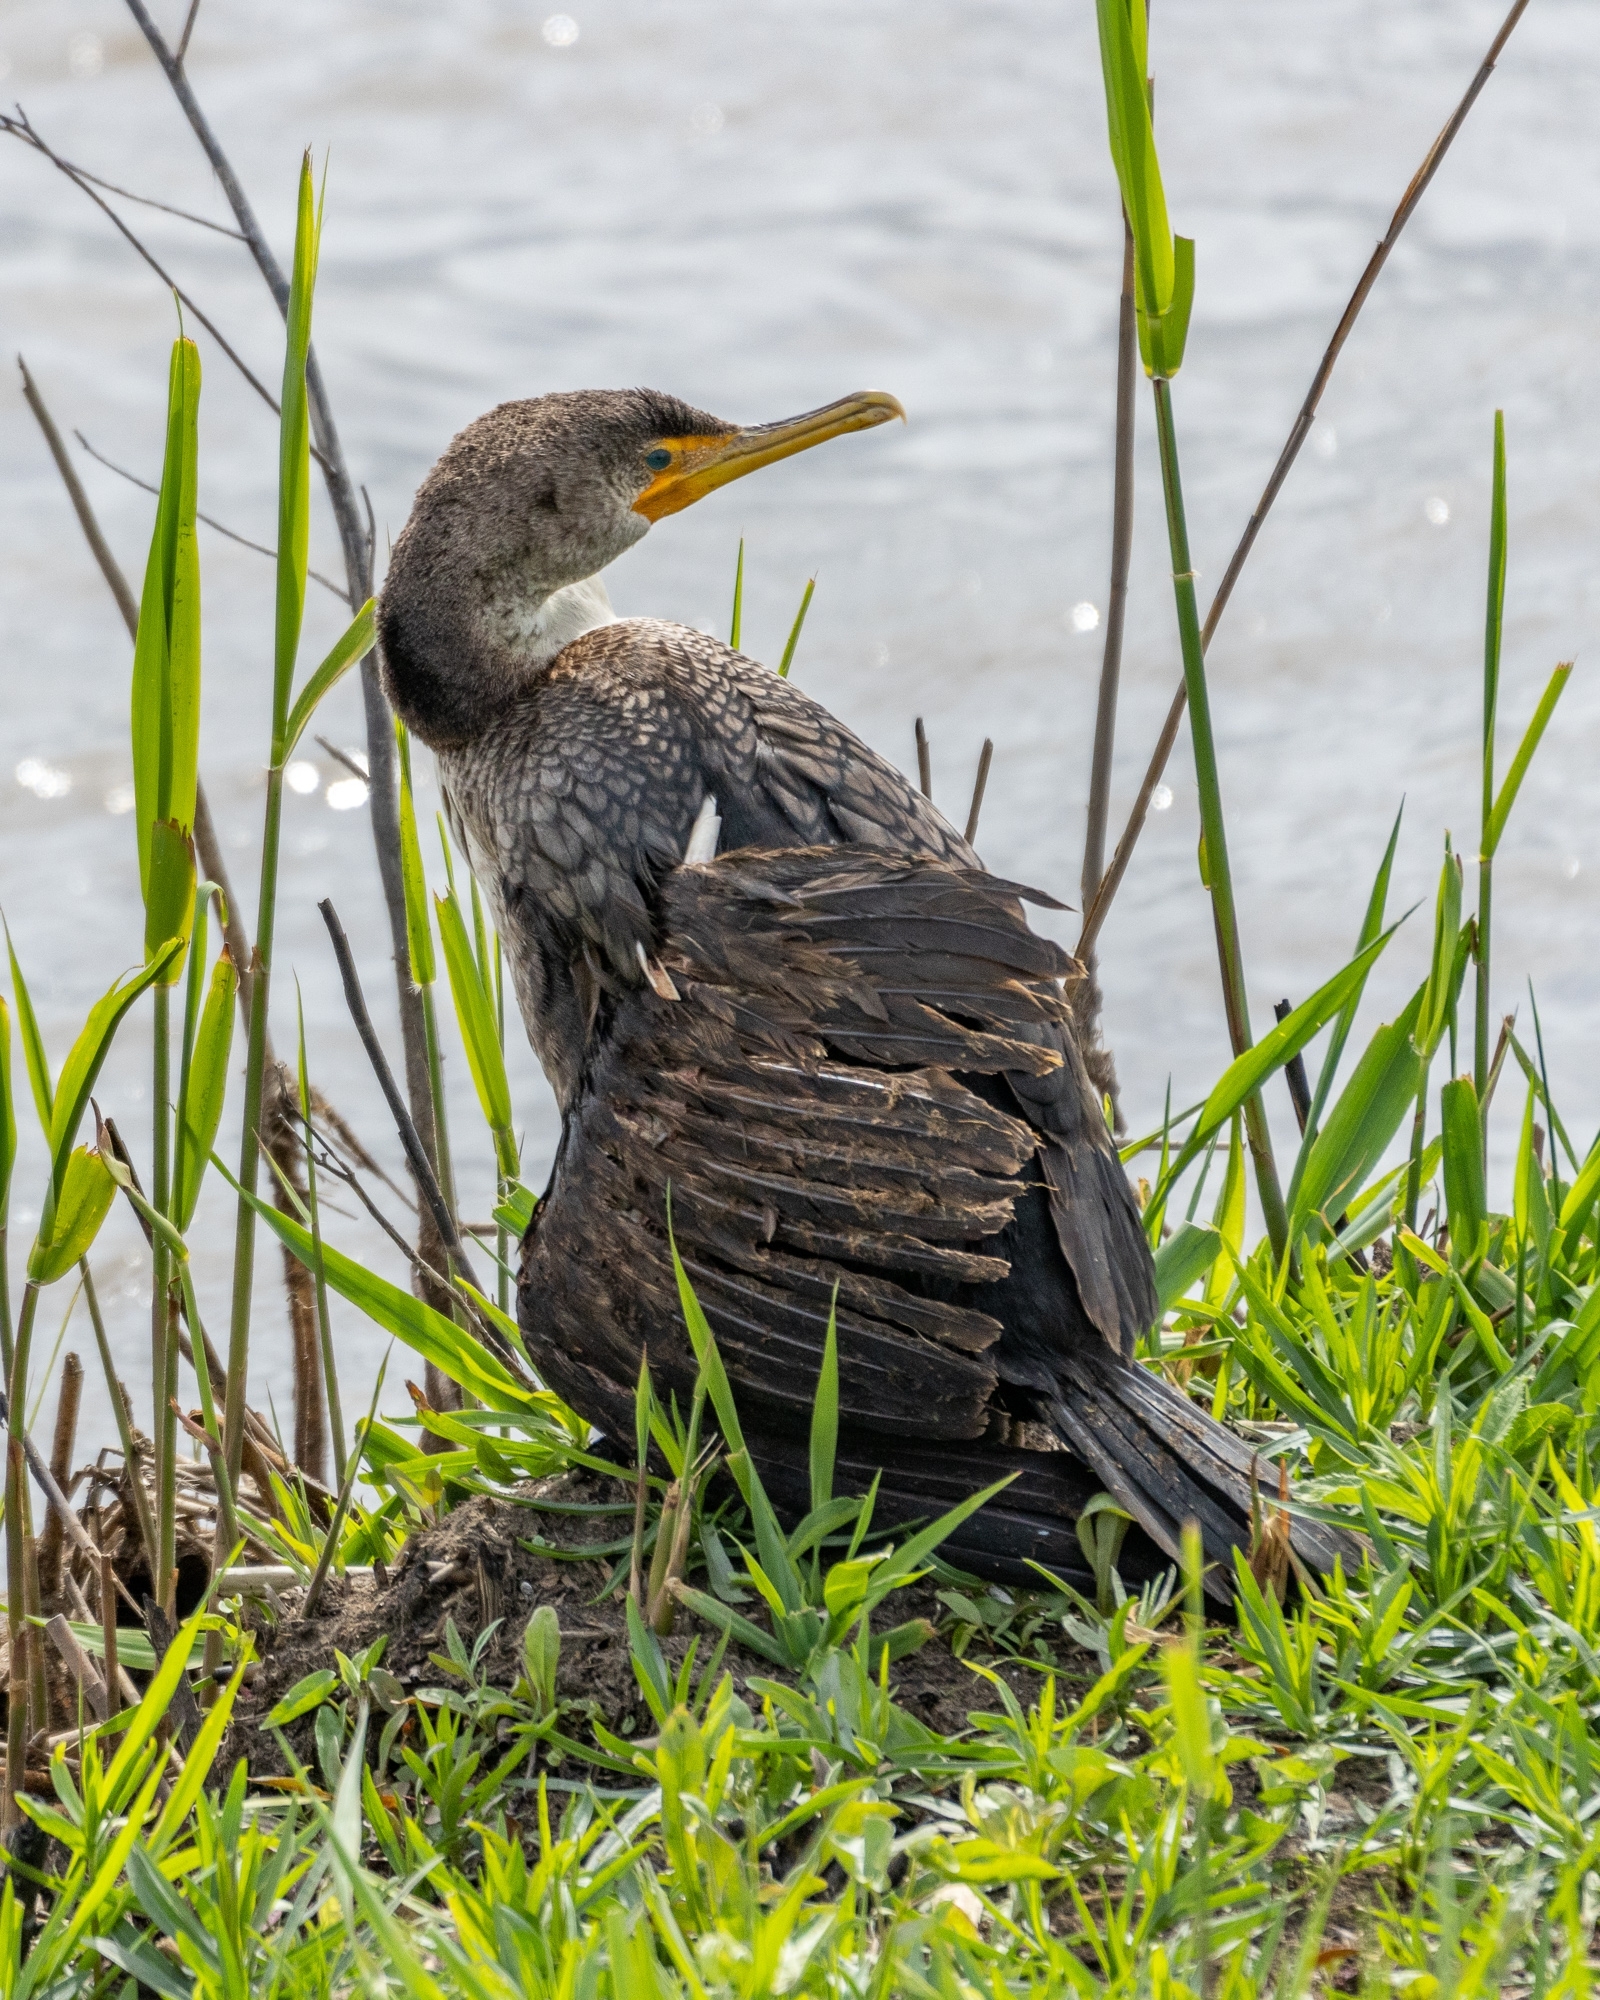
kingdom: Animalia
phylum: Chordata
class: Aves
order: Suliformes
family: Phalacrocoracidae
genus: Phalacrocorax
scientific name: Phalacrocorax auritus
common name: Double-crested cormorant
